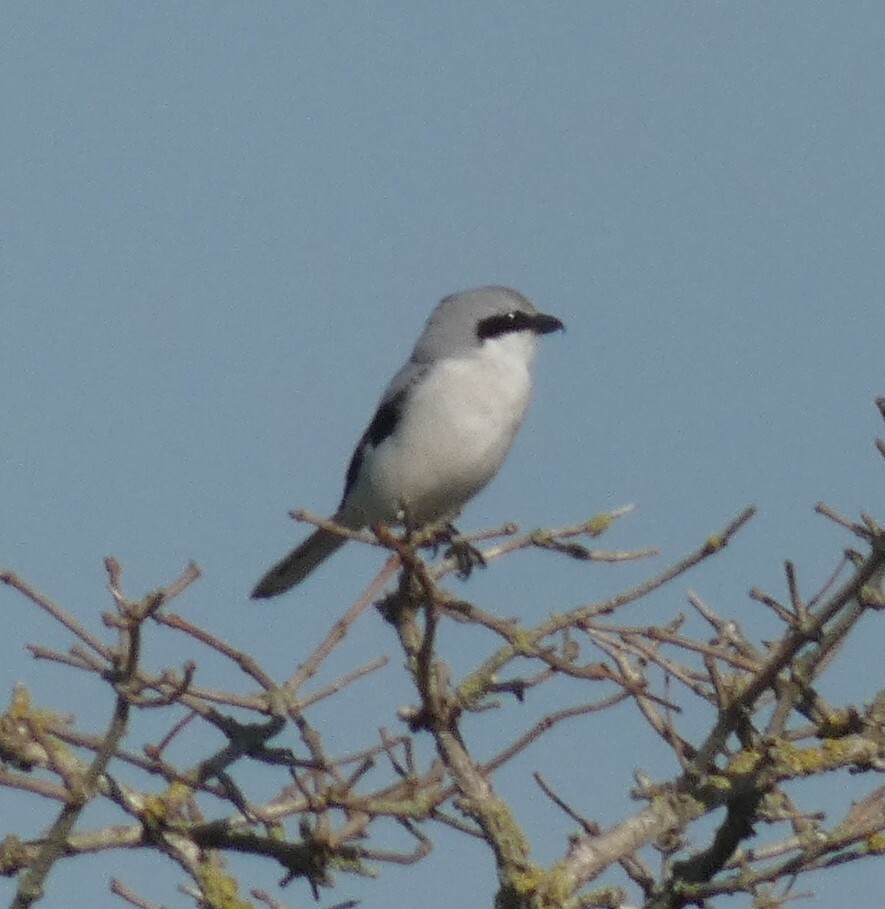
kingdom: Animalia
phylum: Chordata
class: Aves
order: Passeriformes
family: Laniidae
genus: Lanius
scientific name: Lanius excubitor
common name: Great grey shrike
